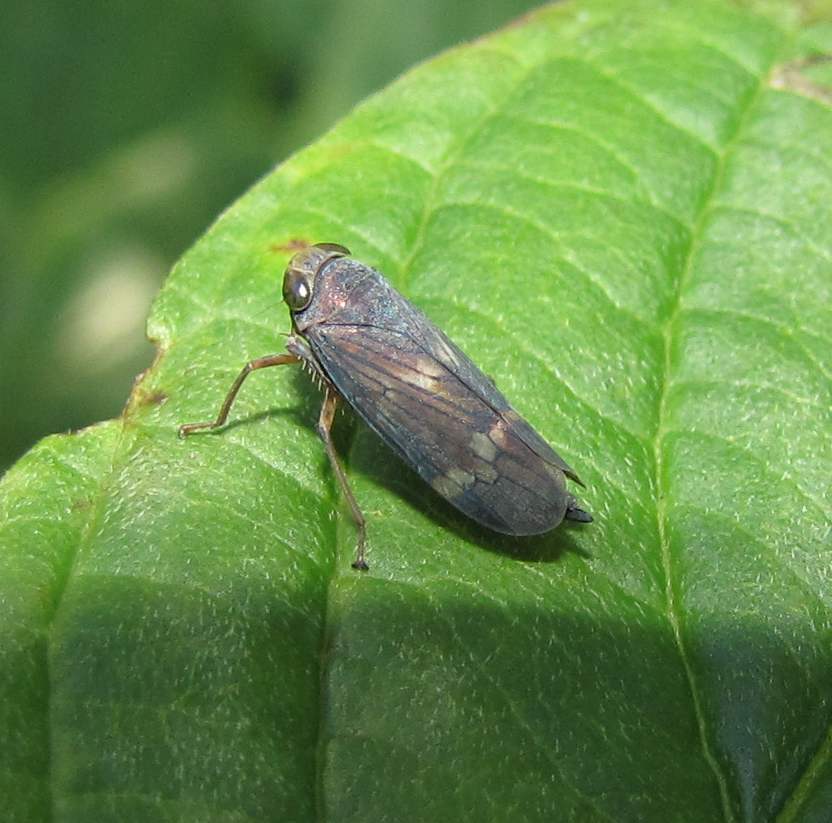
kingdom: Animalia
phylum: Arthropoda
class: Insecta
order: Hemiptera
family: Cicadellidae
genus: Jikradia
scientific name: Jikradia olitoria
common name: Coppery leafhopper
